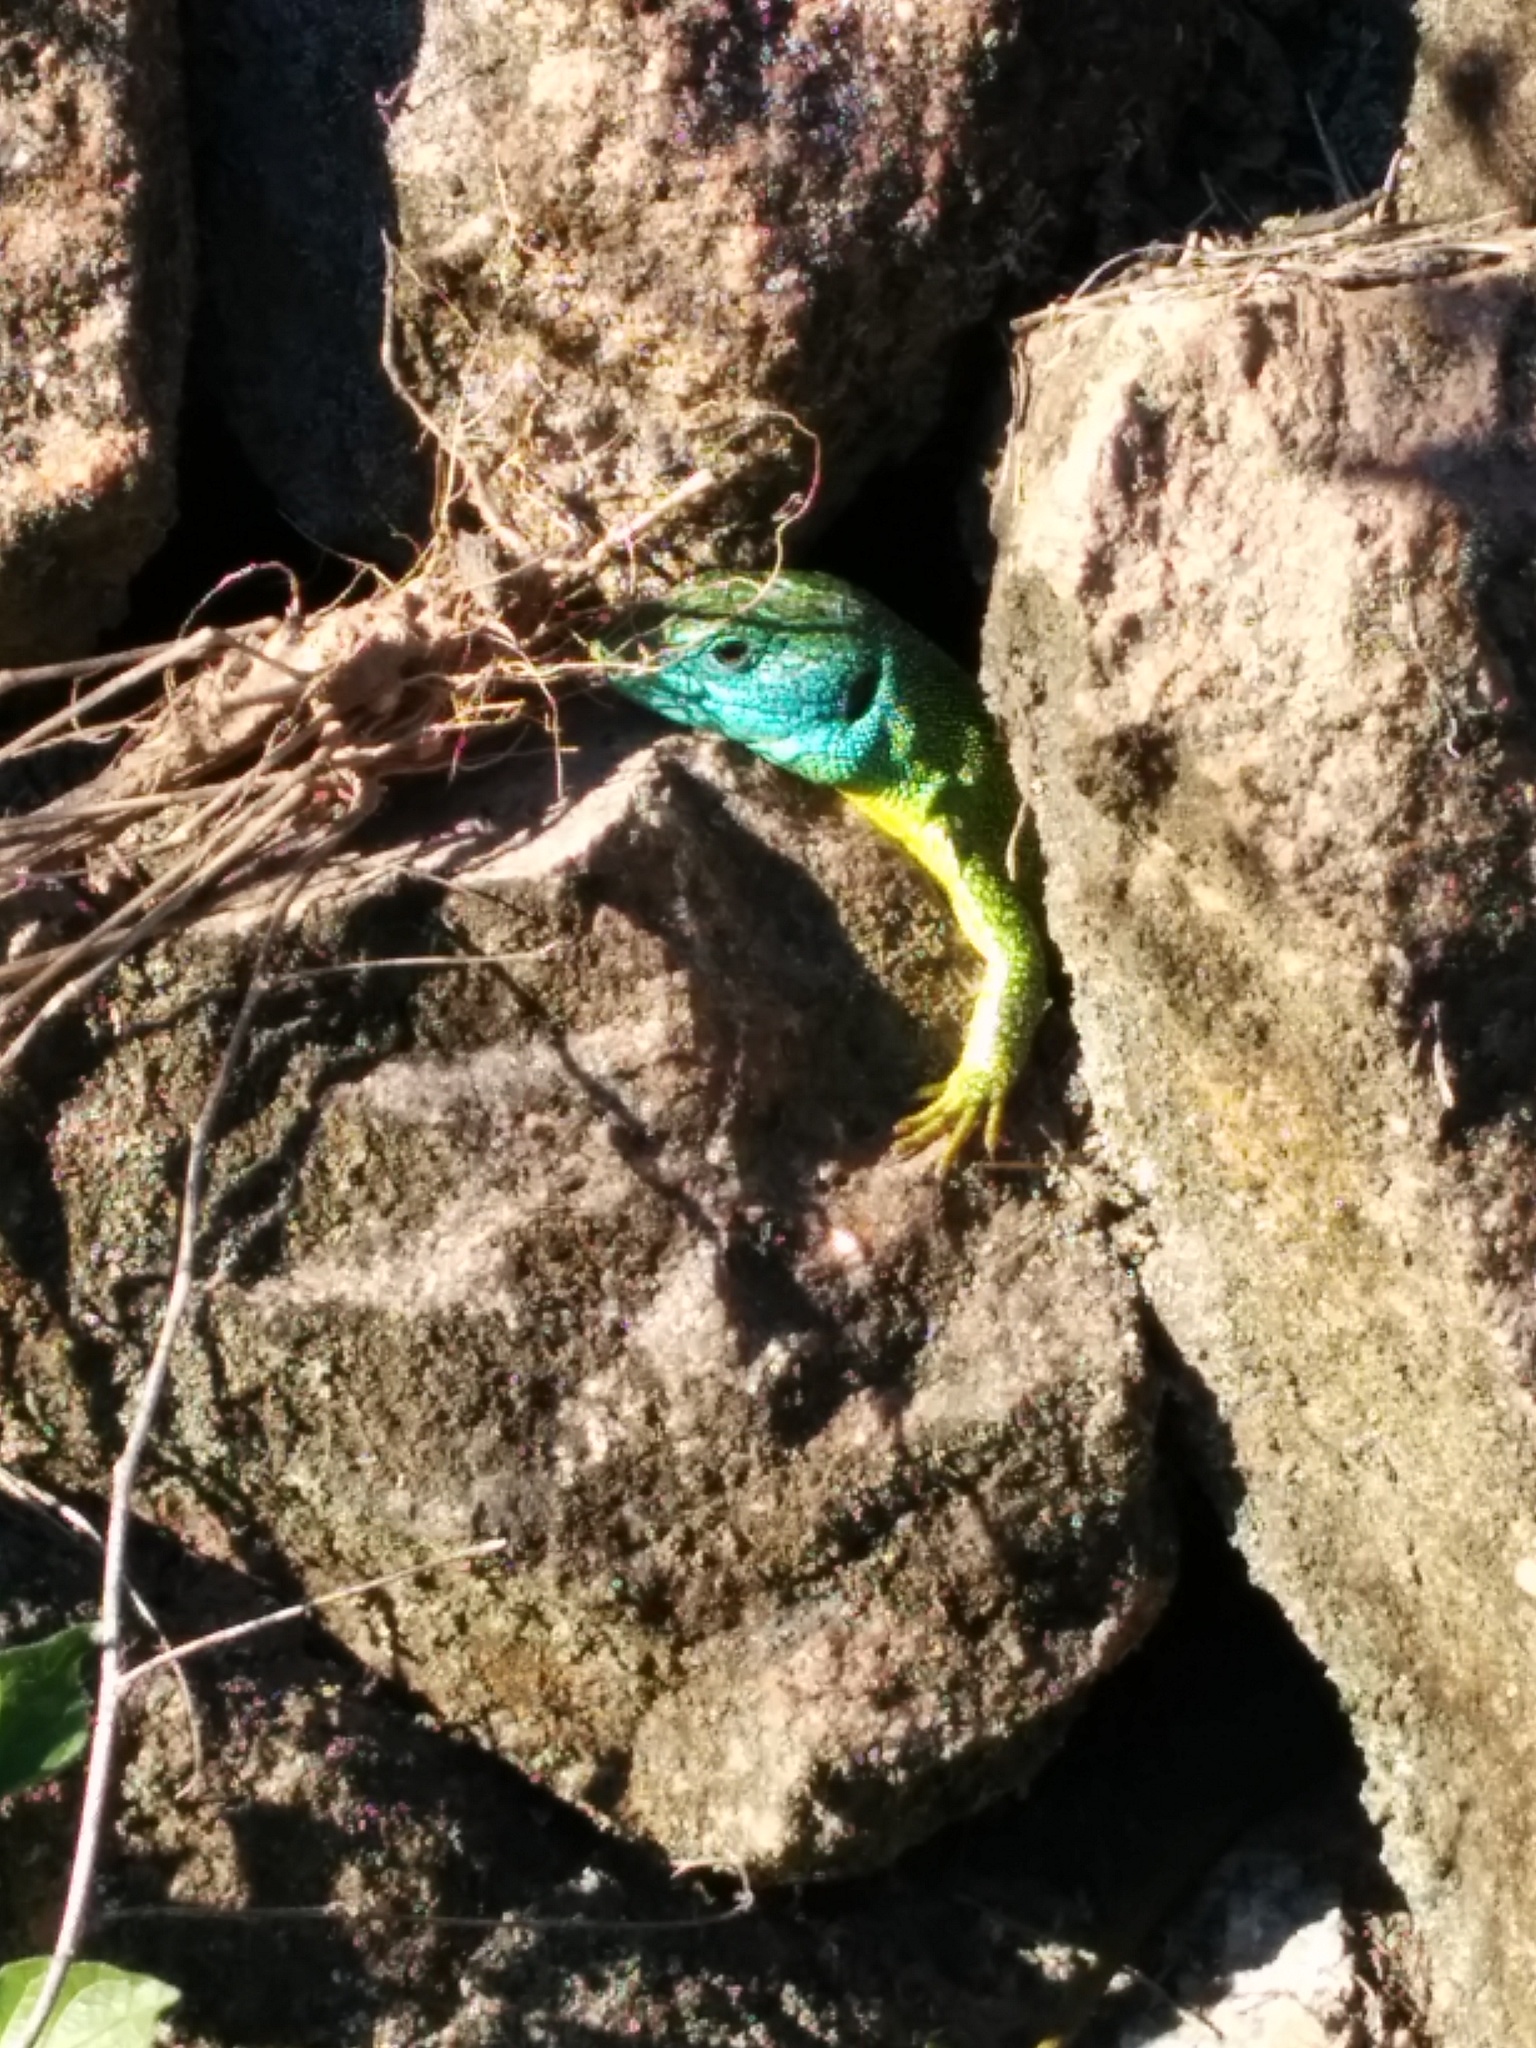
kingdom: Animalia
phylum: Chordata
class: Squamata
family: Lacertidae
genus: Lacerta
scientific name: Lacerta bilineata
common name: Western green lizard
